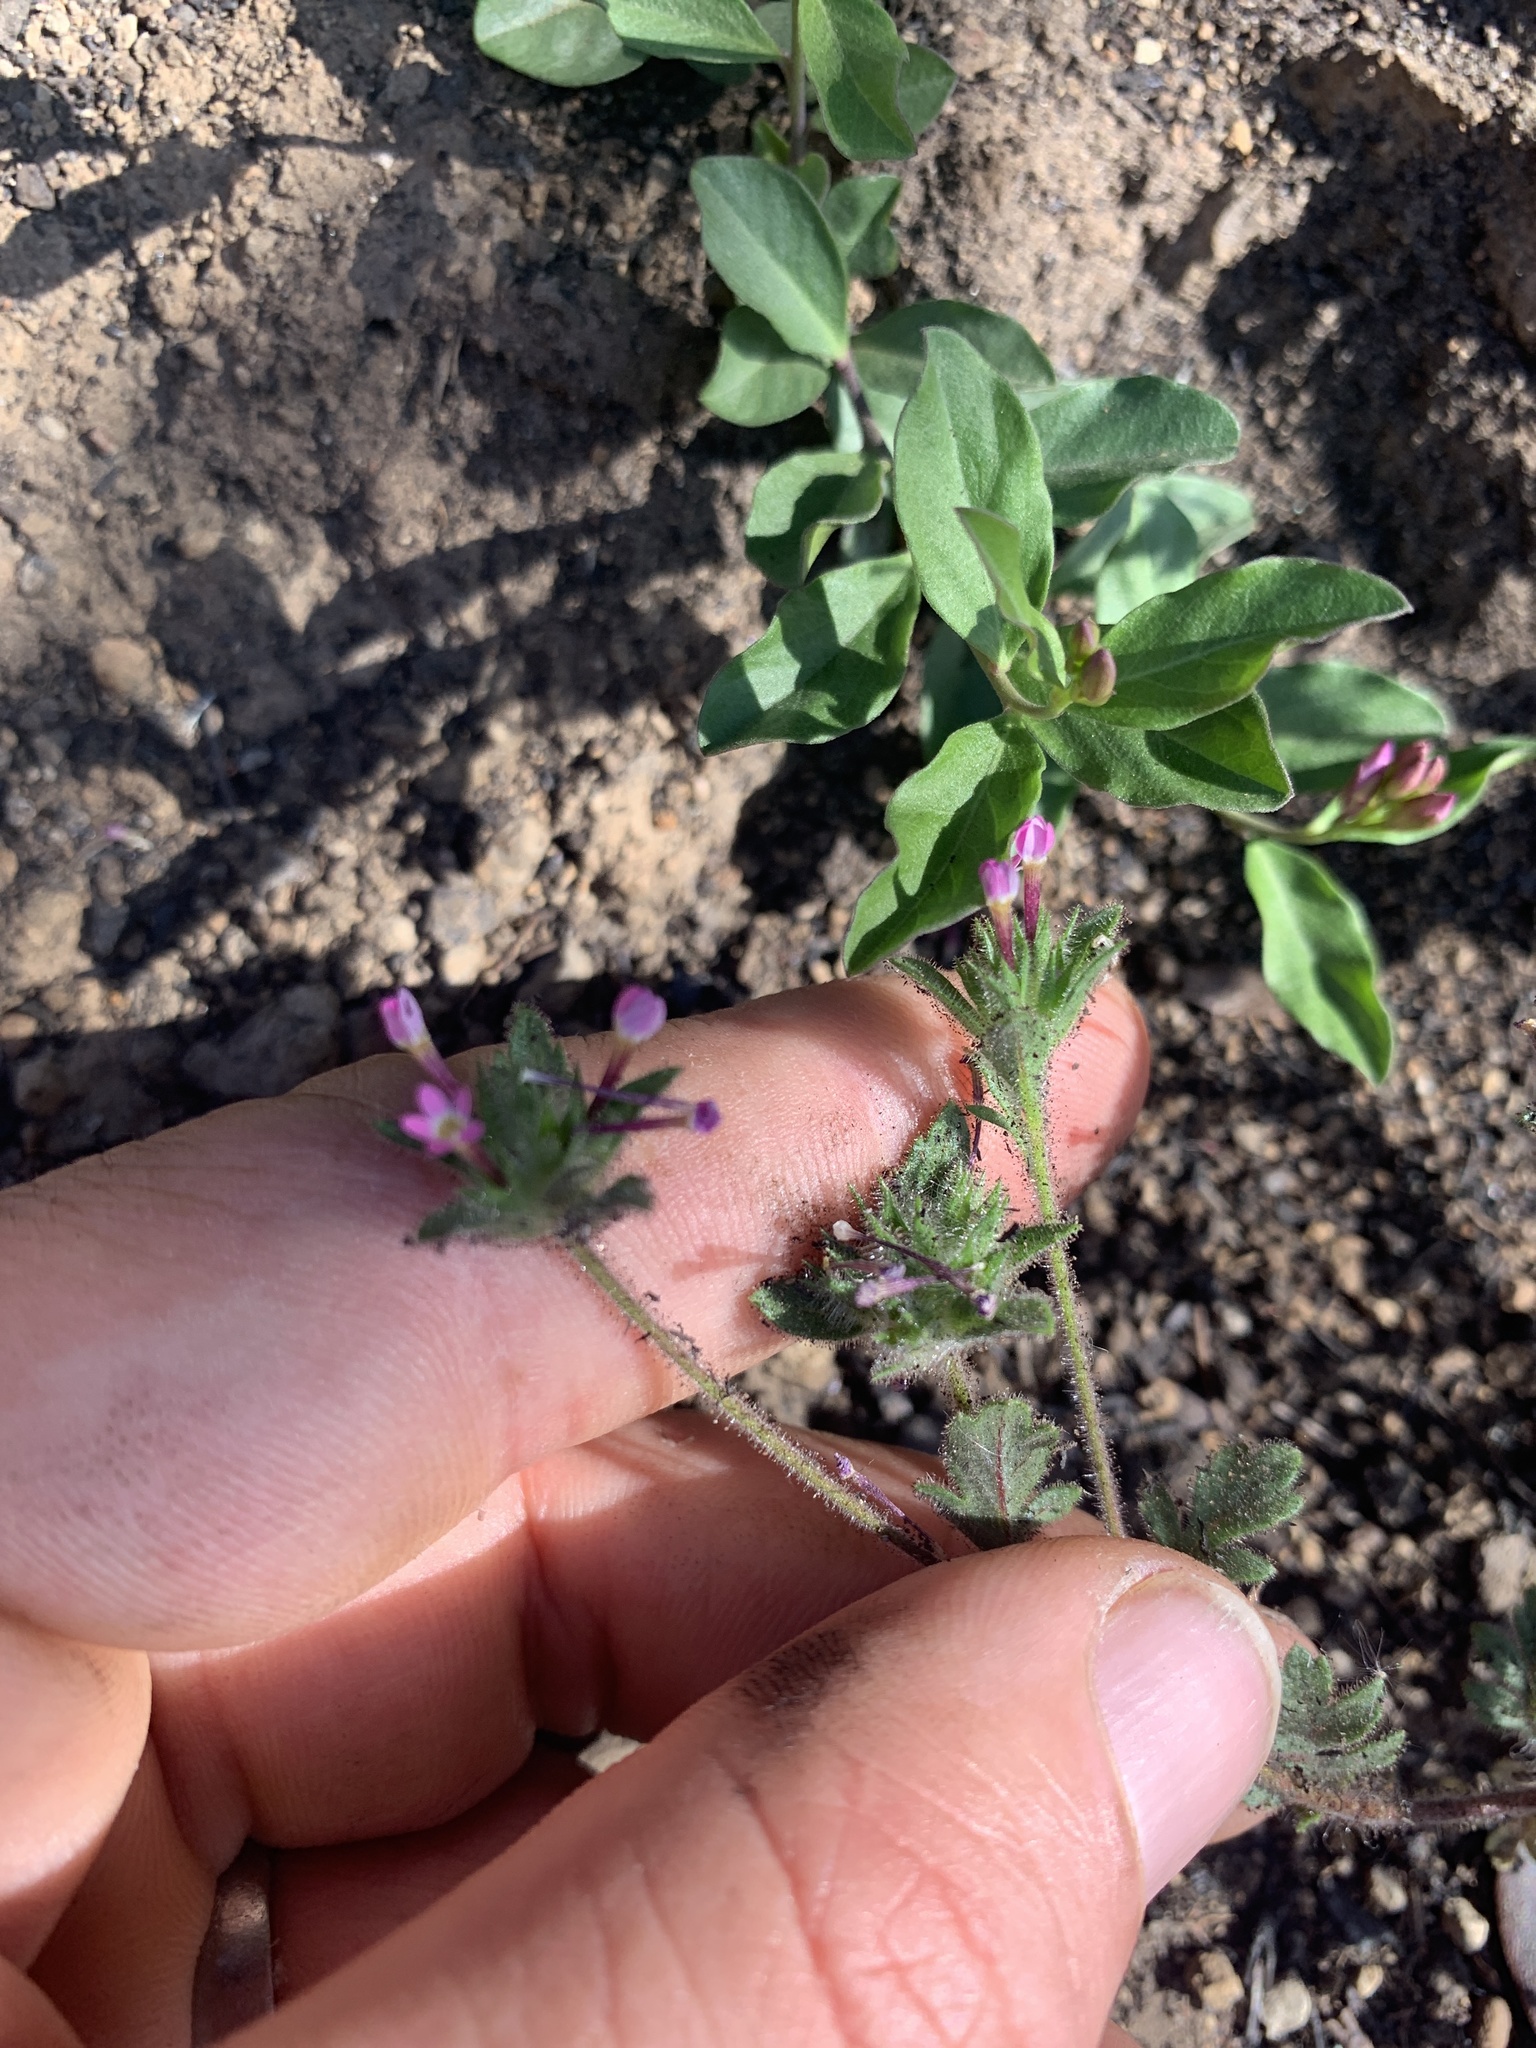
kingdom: Plantae
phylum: Tracheophyta
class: Magnoliopsida
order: Ericales
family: Polemoniaceae
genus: Collomia
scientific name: Collomia heterophylla
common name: Variable-leaved collomia
